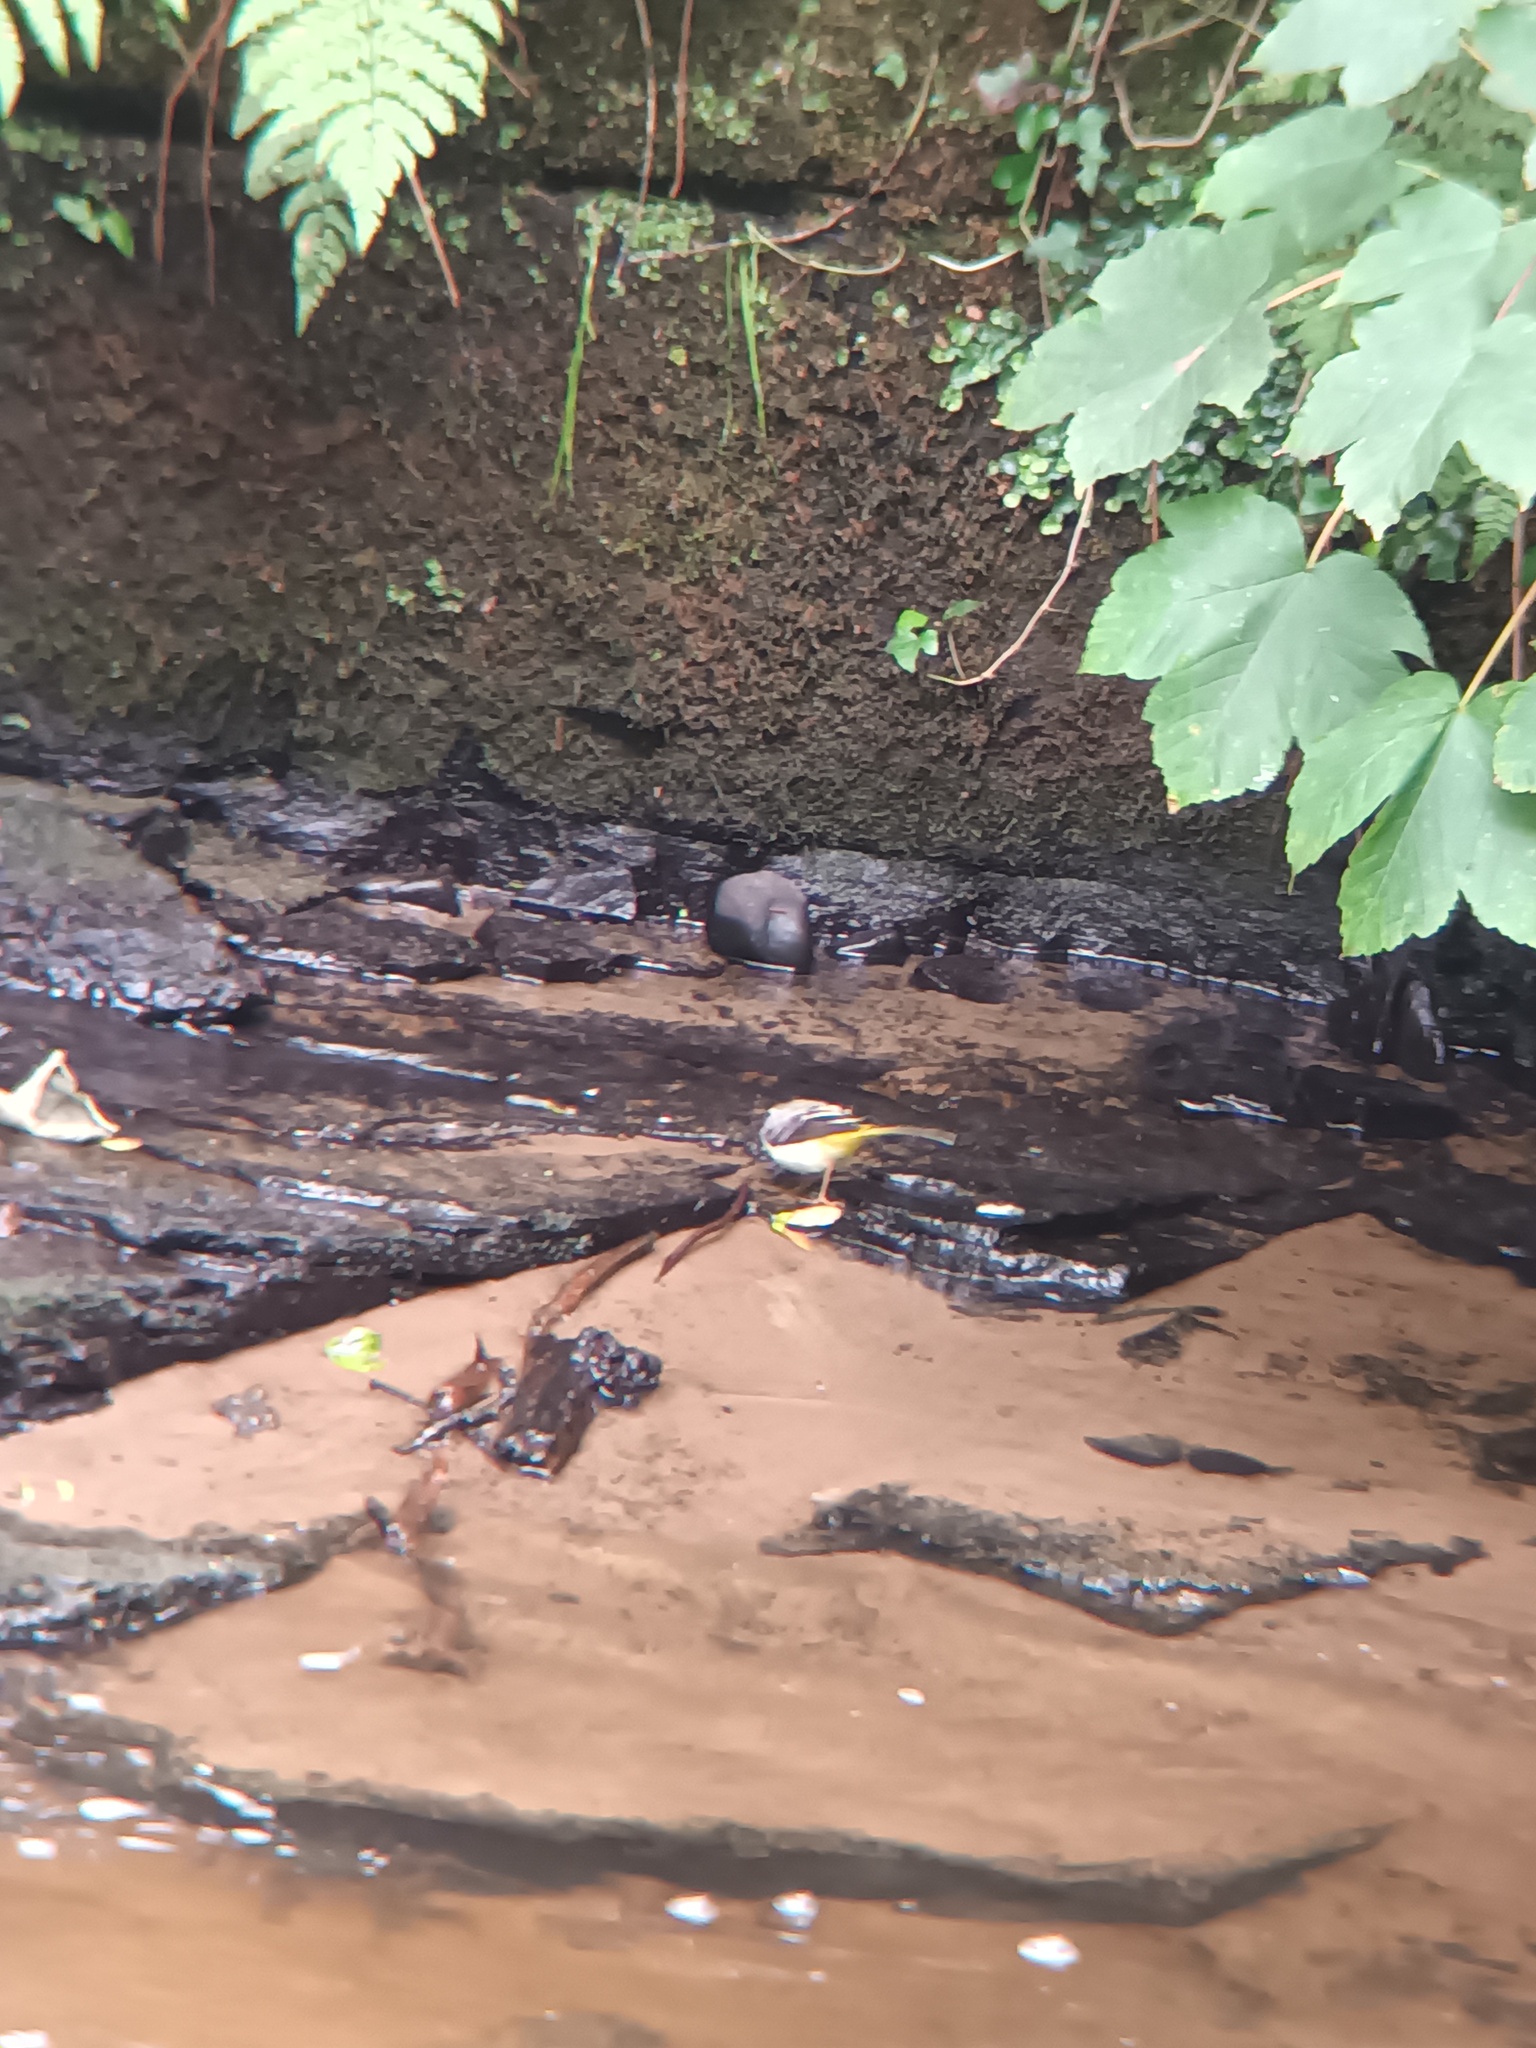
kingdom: Animalia
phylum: Chordata
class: Aves
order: Passeriformes
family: Motacillidae
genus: Motacilla
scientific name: Motacilla cinerea
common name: Grey wagtail
